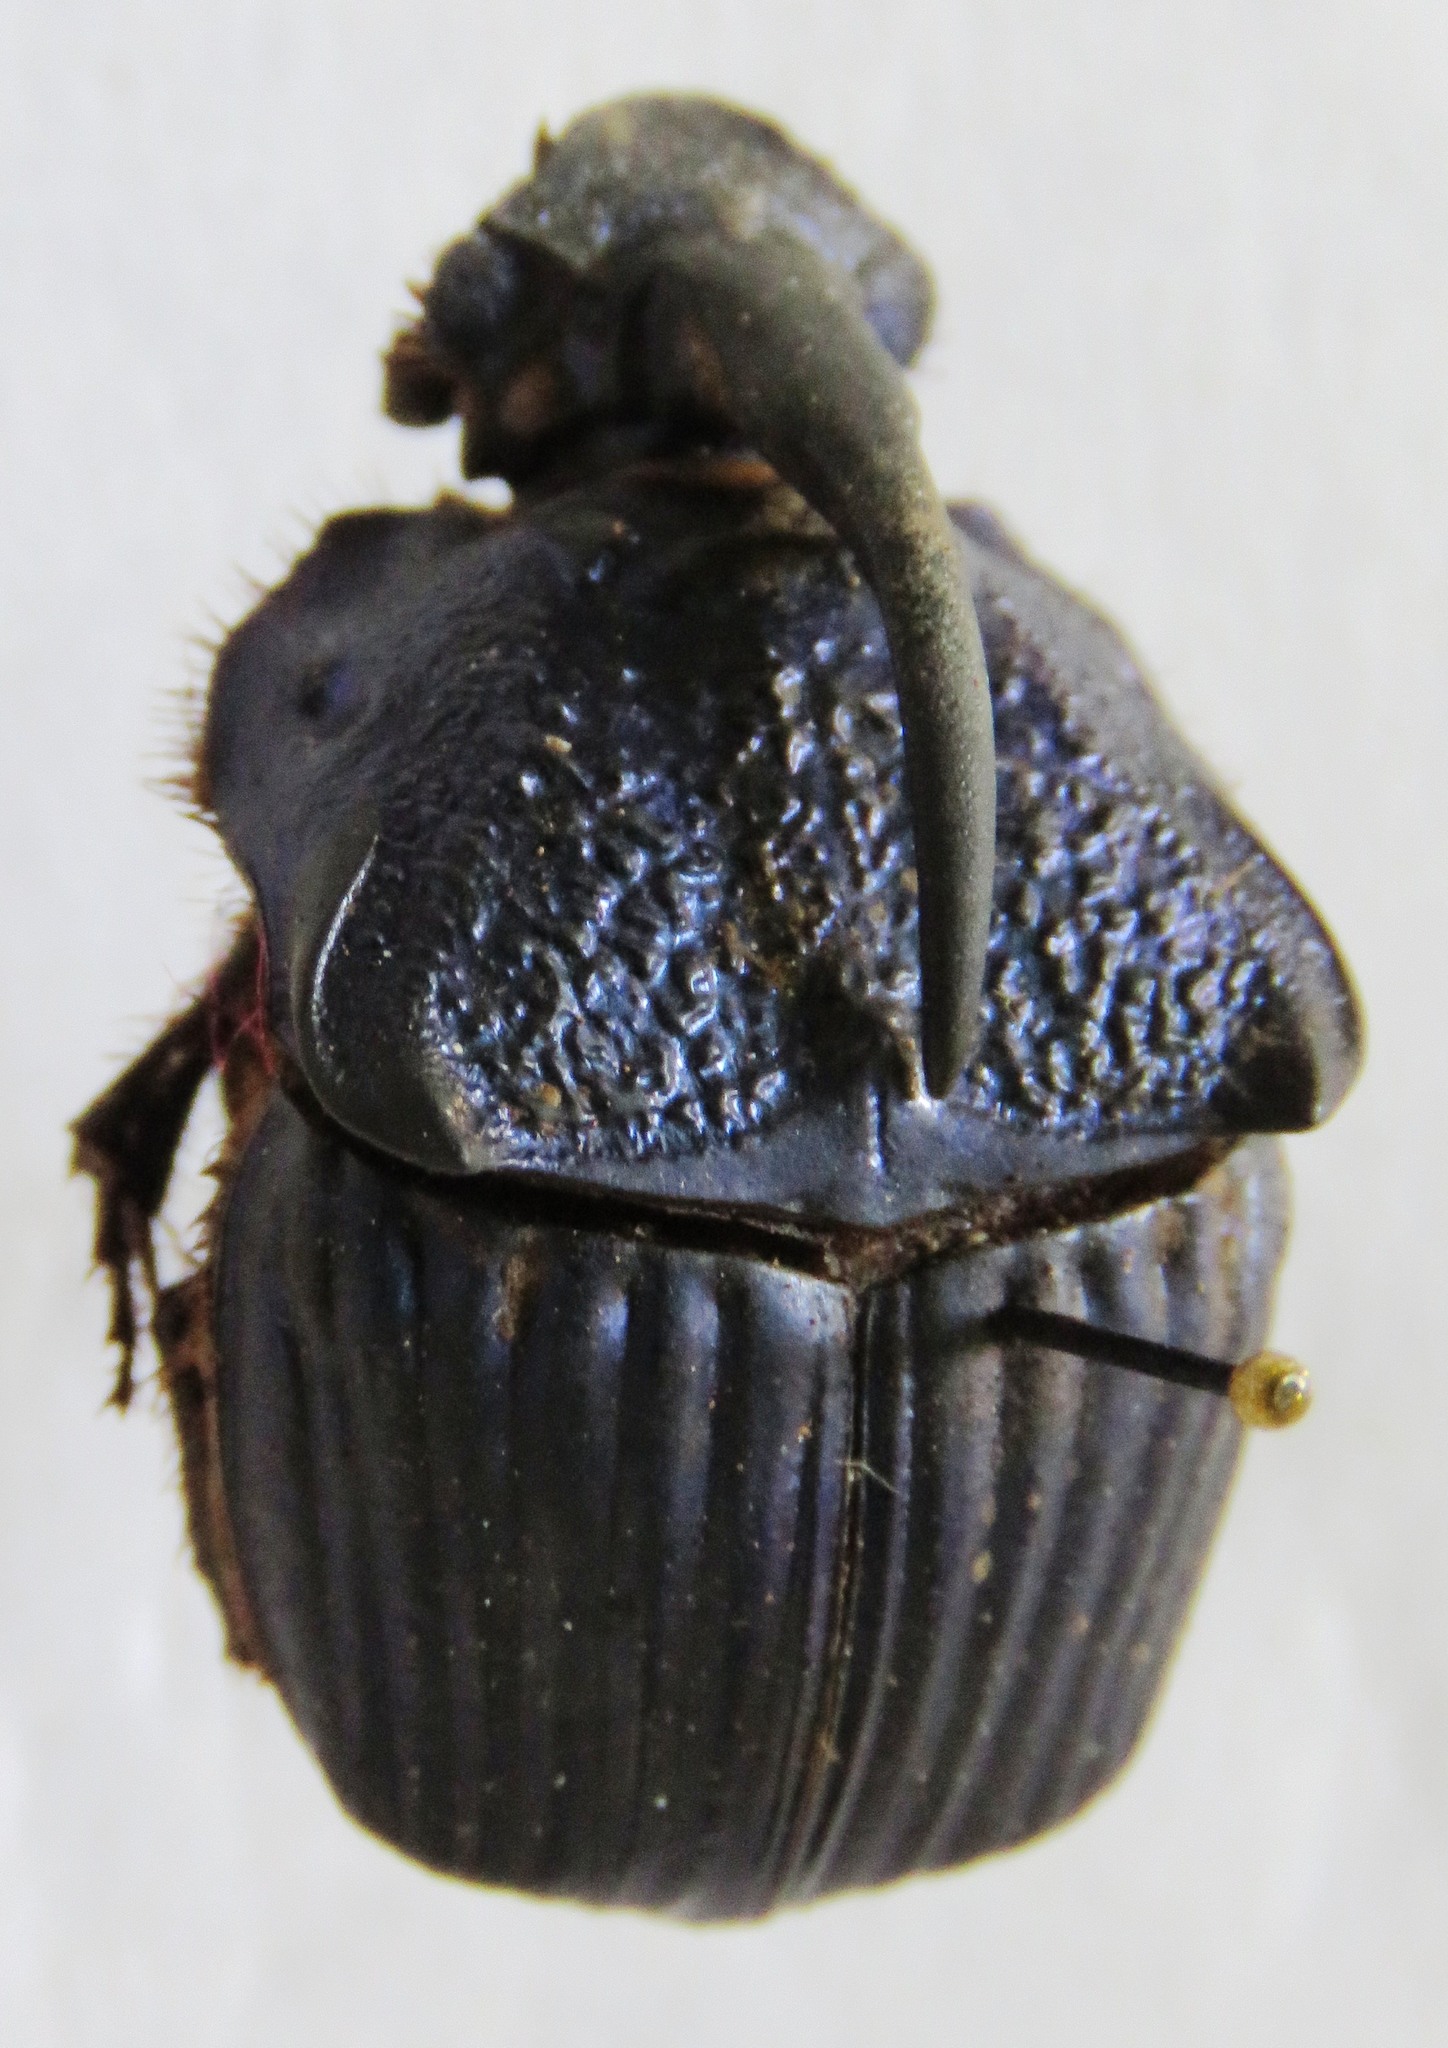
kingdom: Animalia
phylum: Arthropoda
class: Insecta
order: Coleoptera
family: Scarabaeidae
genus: Phanaeus
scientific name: Phanaeus guatemalensis
